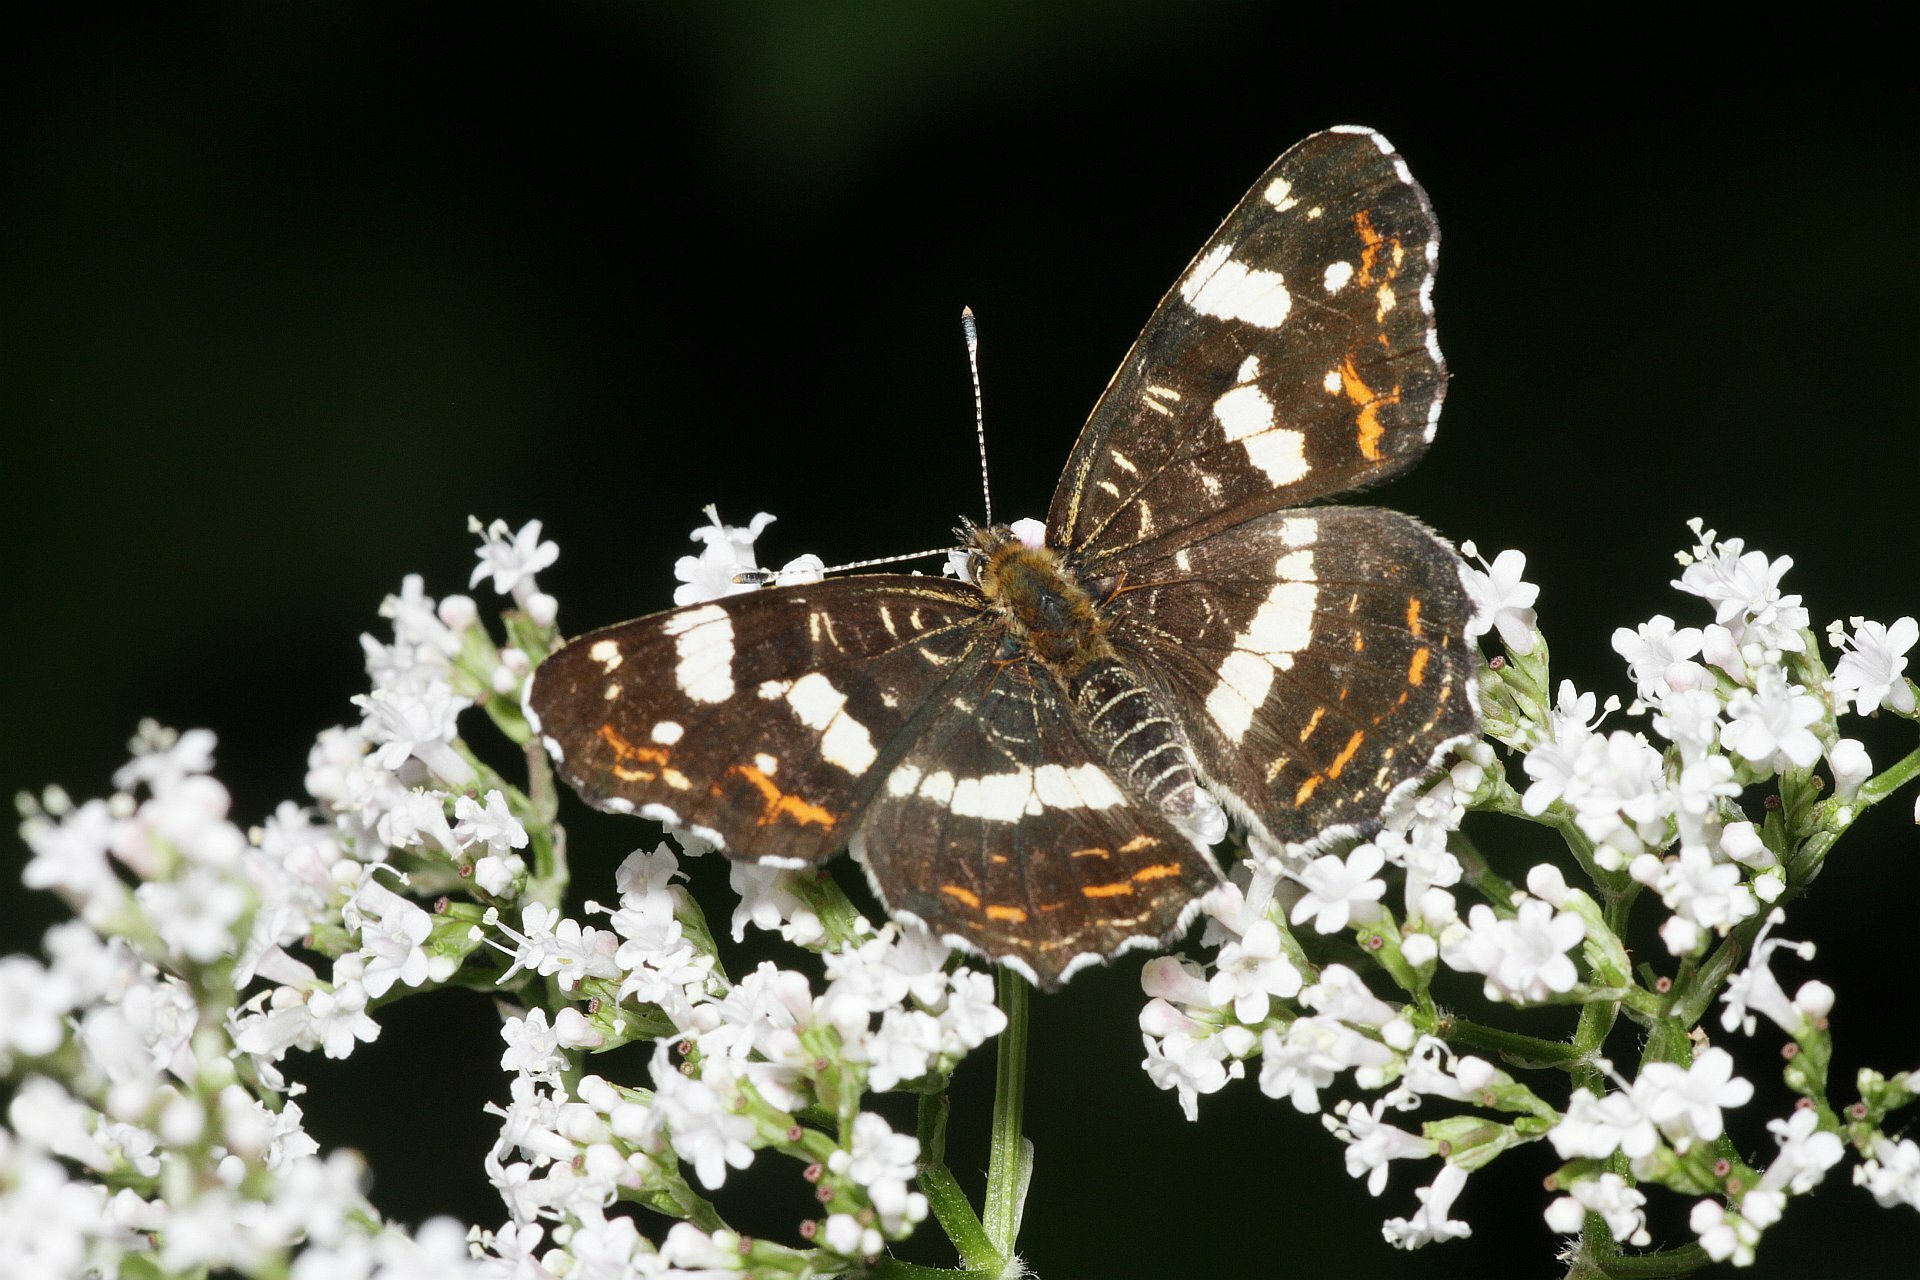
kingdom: Animalia
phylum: Arthropoda
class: Insecta
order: Lepidoptera
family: Nymphalidae
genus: Araschnia
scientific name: Araschnia levana
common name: Map butterfly
